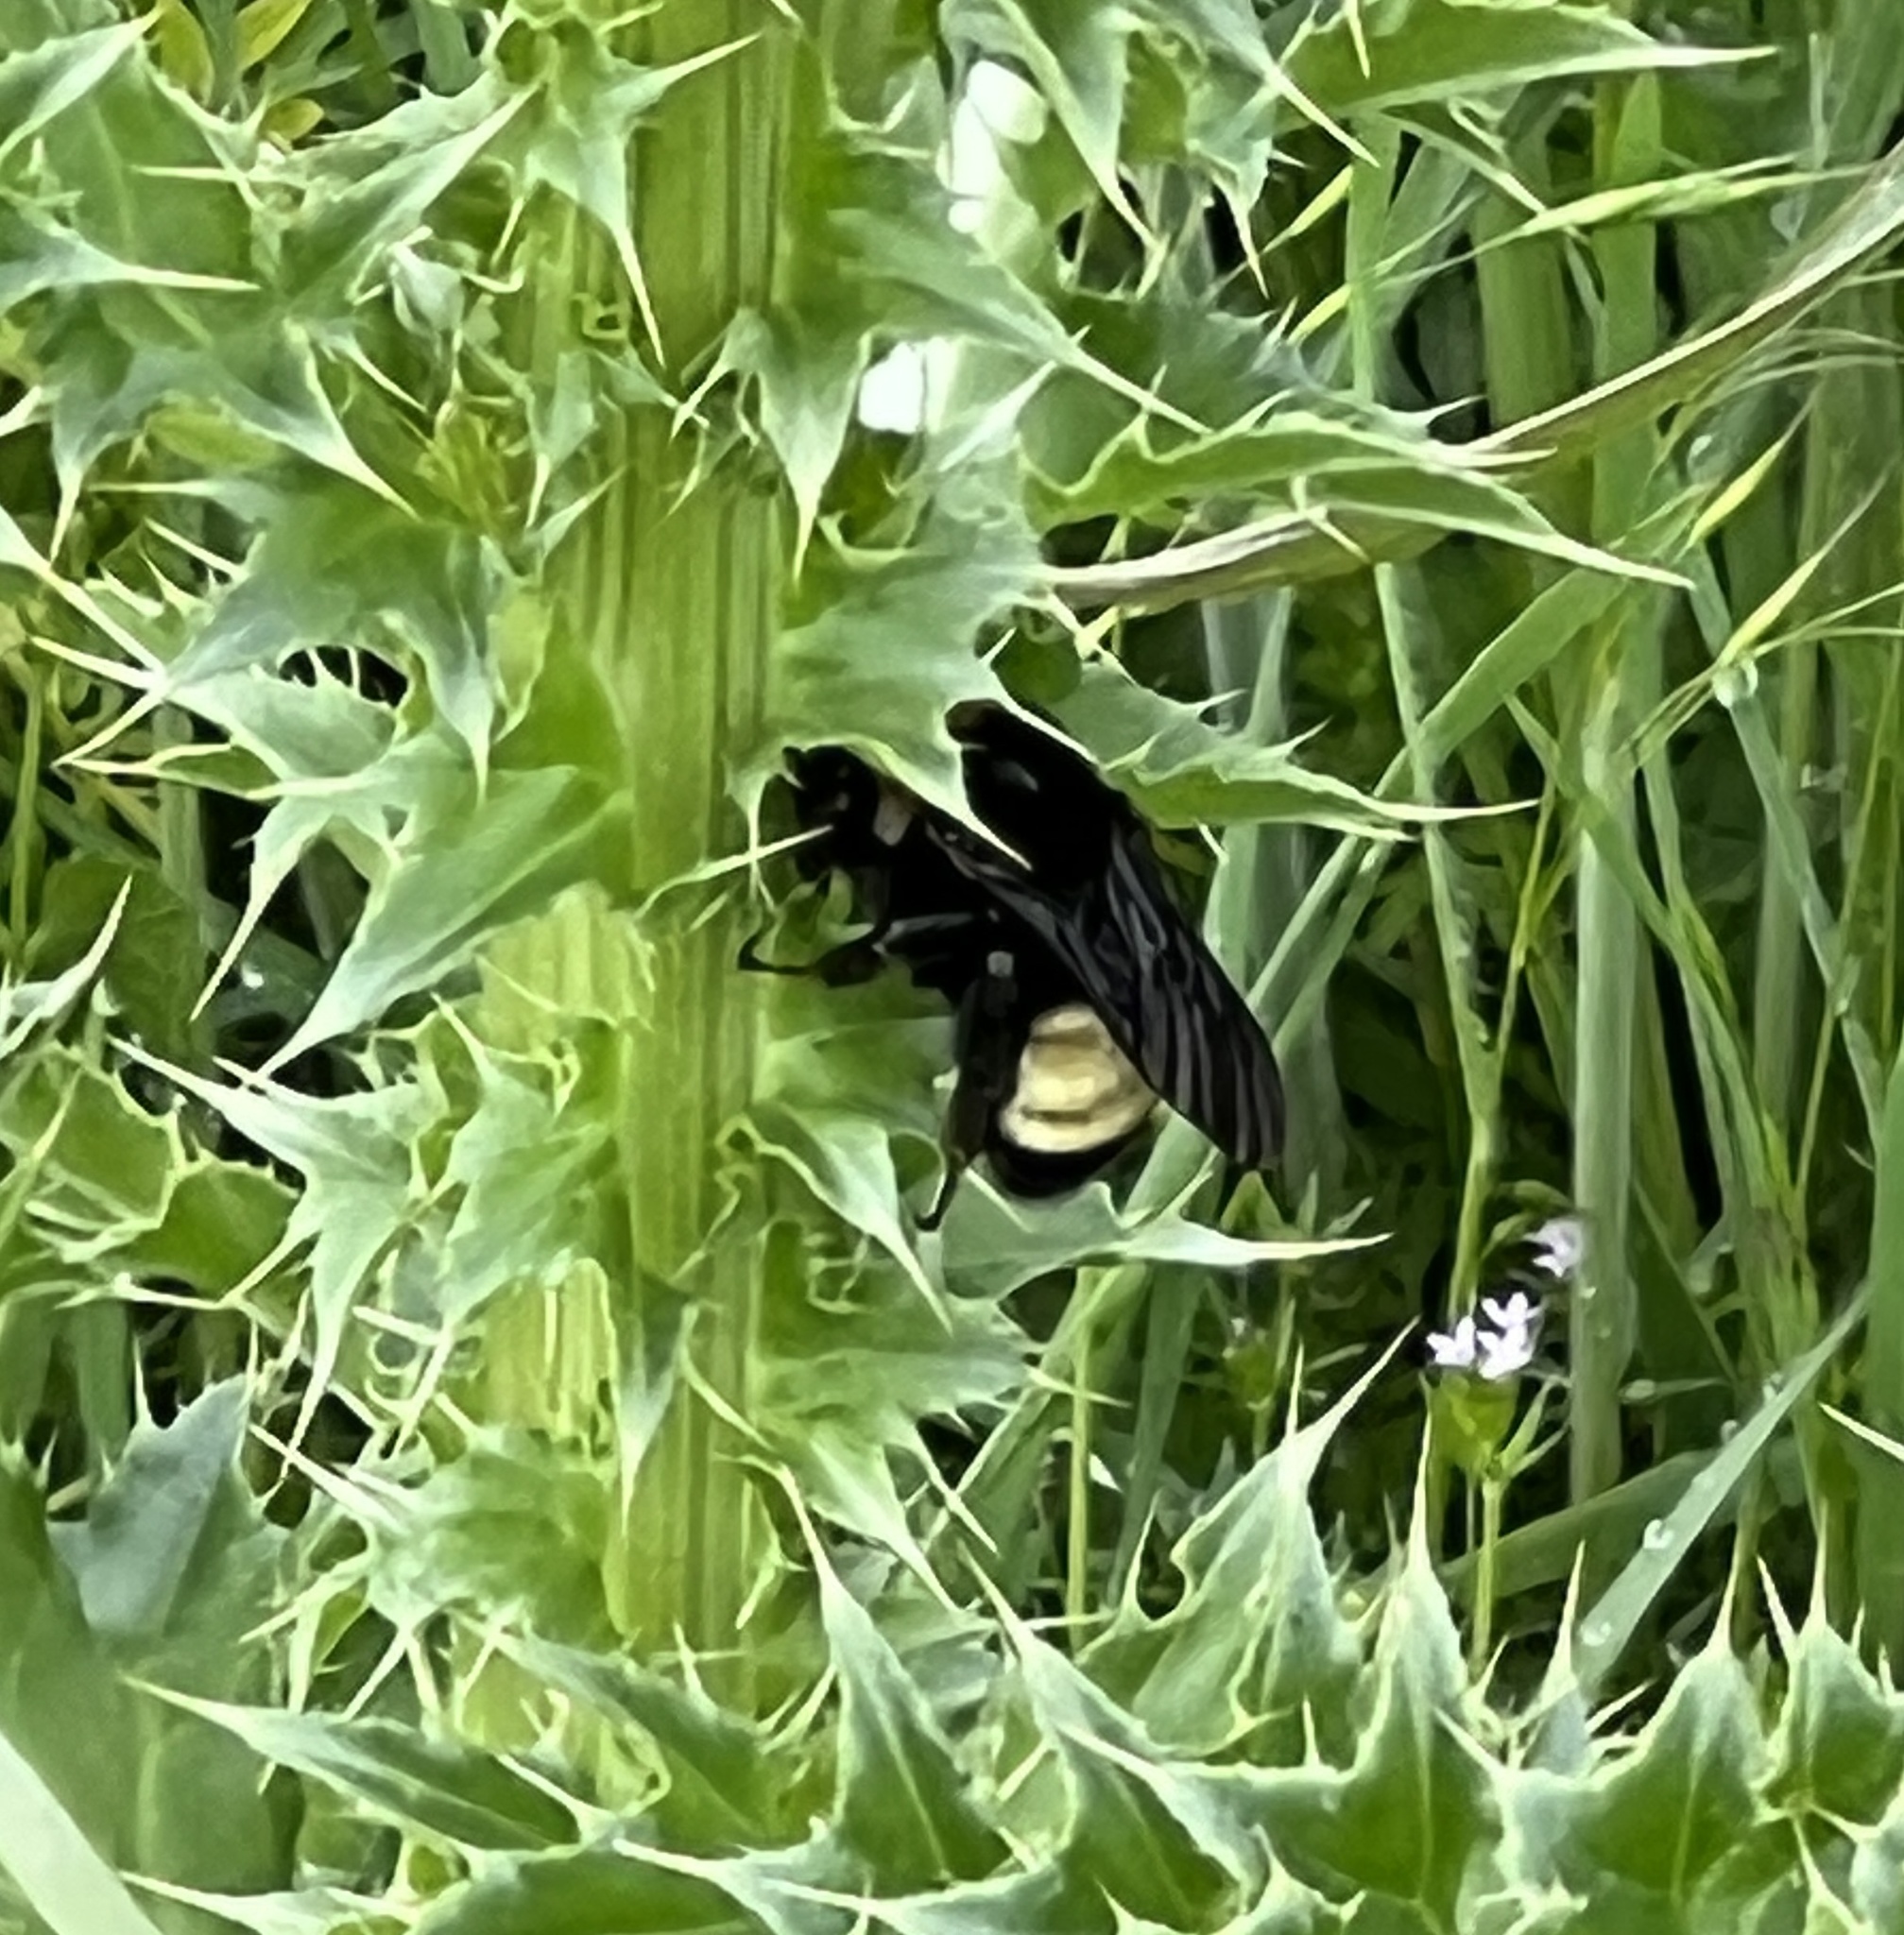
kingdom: Animalia
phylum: Arthropoda
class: Insecta
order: Hymenoptera
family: Apidae
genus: Bombus
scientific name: Bombus pensylvanicus
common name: Bumble bee
